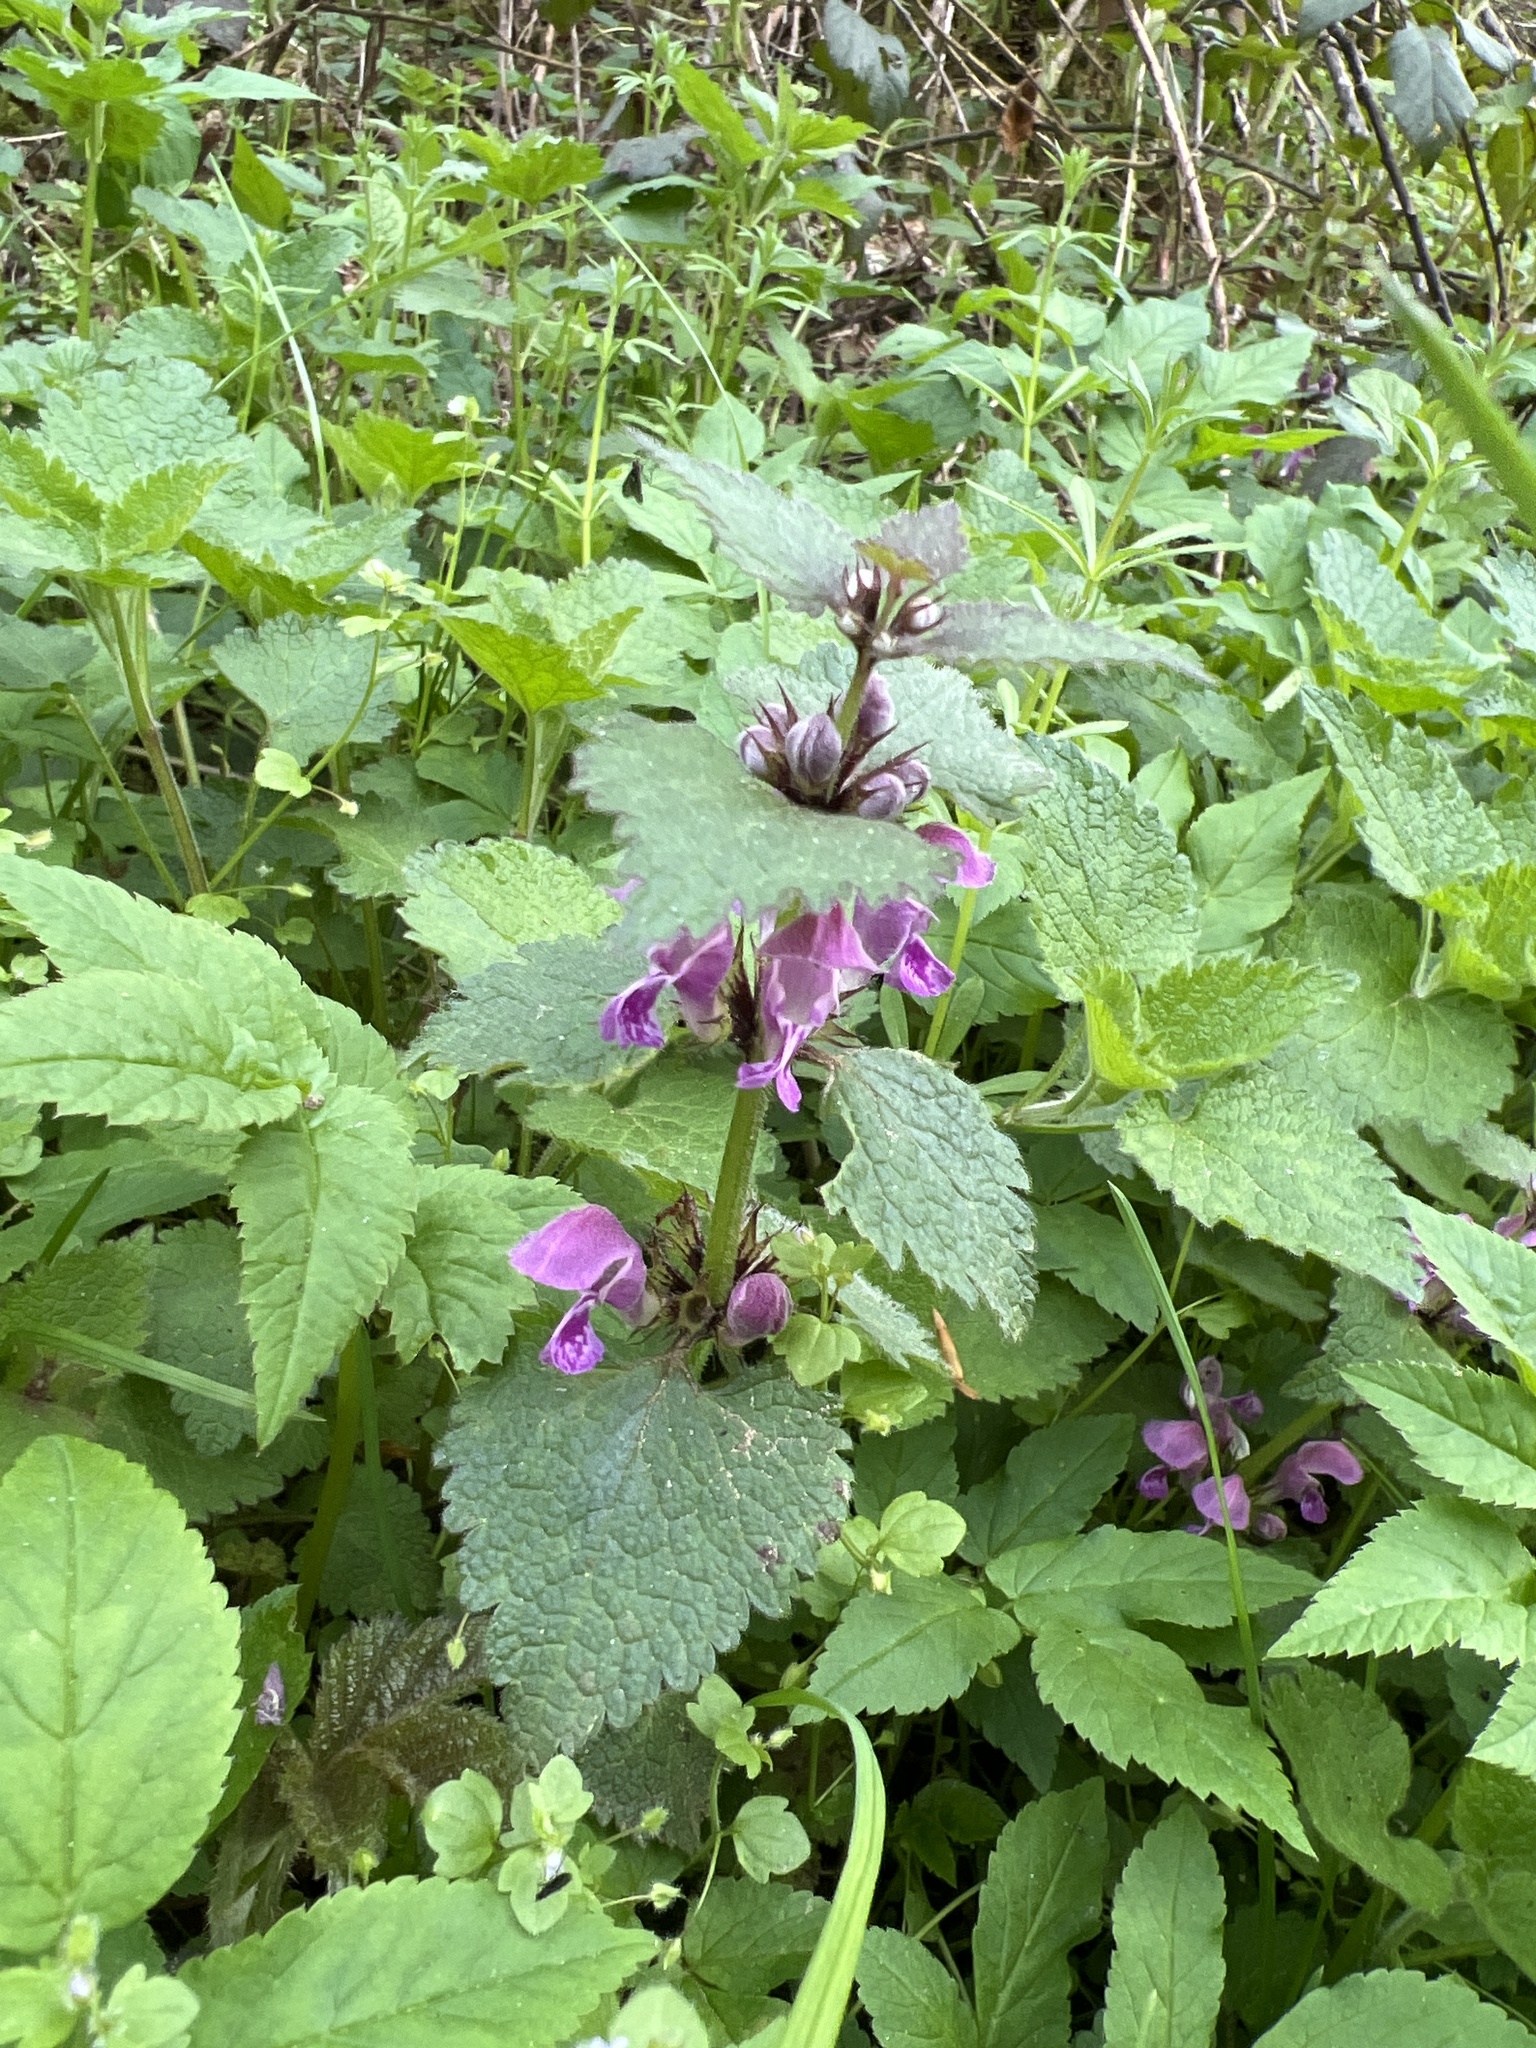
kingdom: Plantae
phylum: Tracheophyta
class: Magnoliopsida
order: Lamiales
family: Lamiaceae
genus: Lamium
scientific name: Lamium maculatum
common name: Spotted dead-nettle
